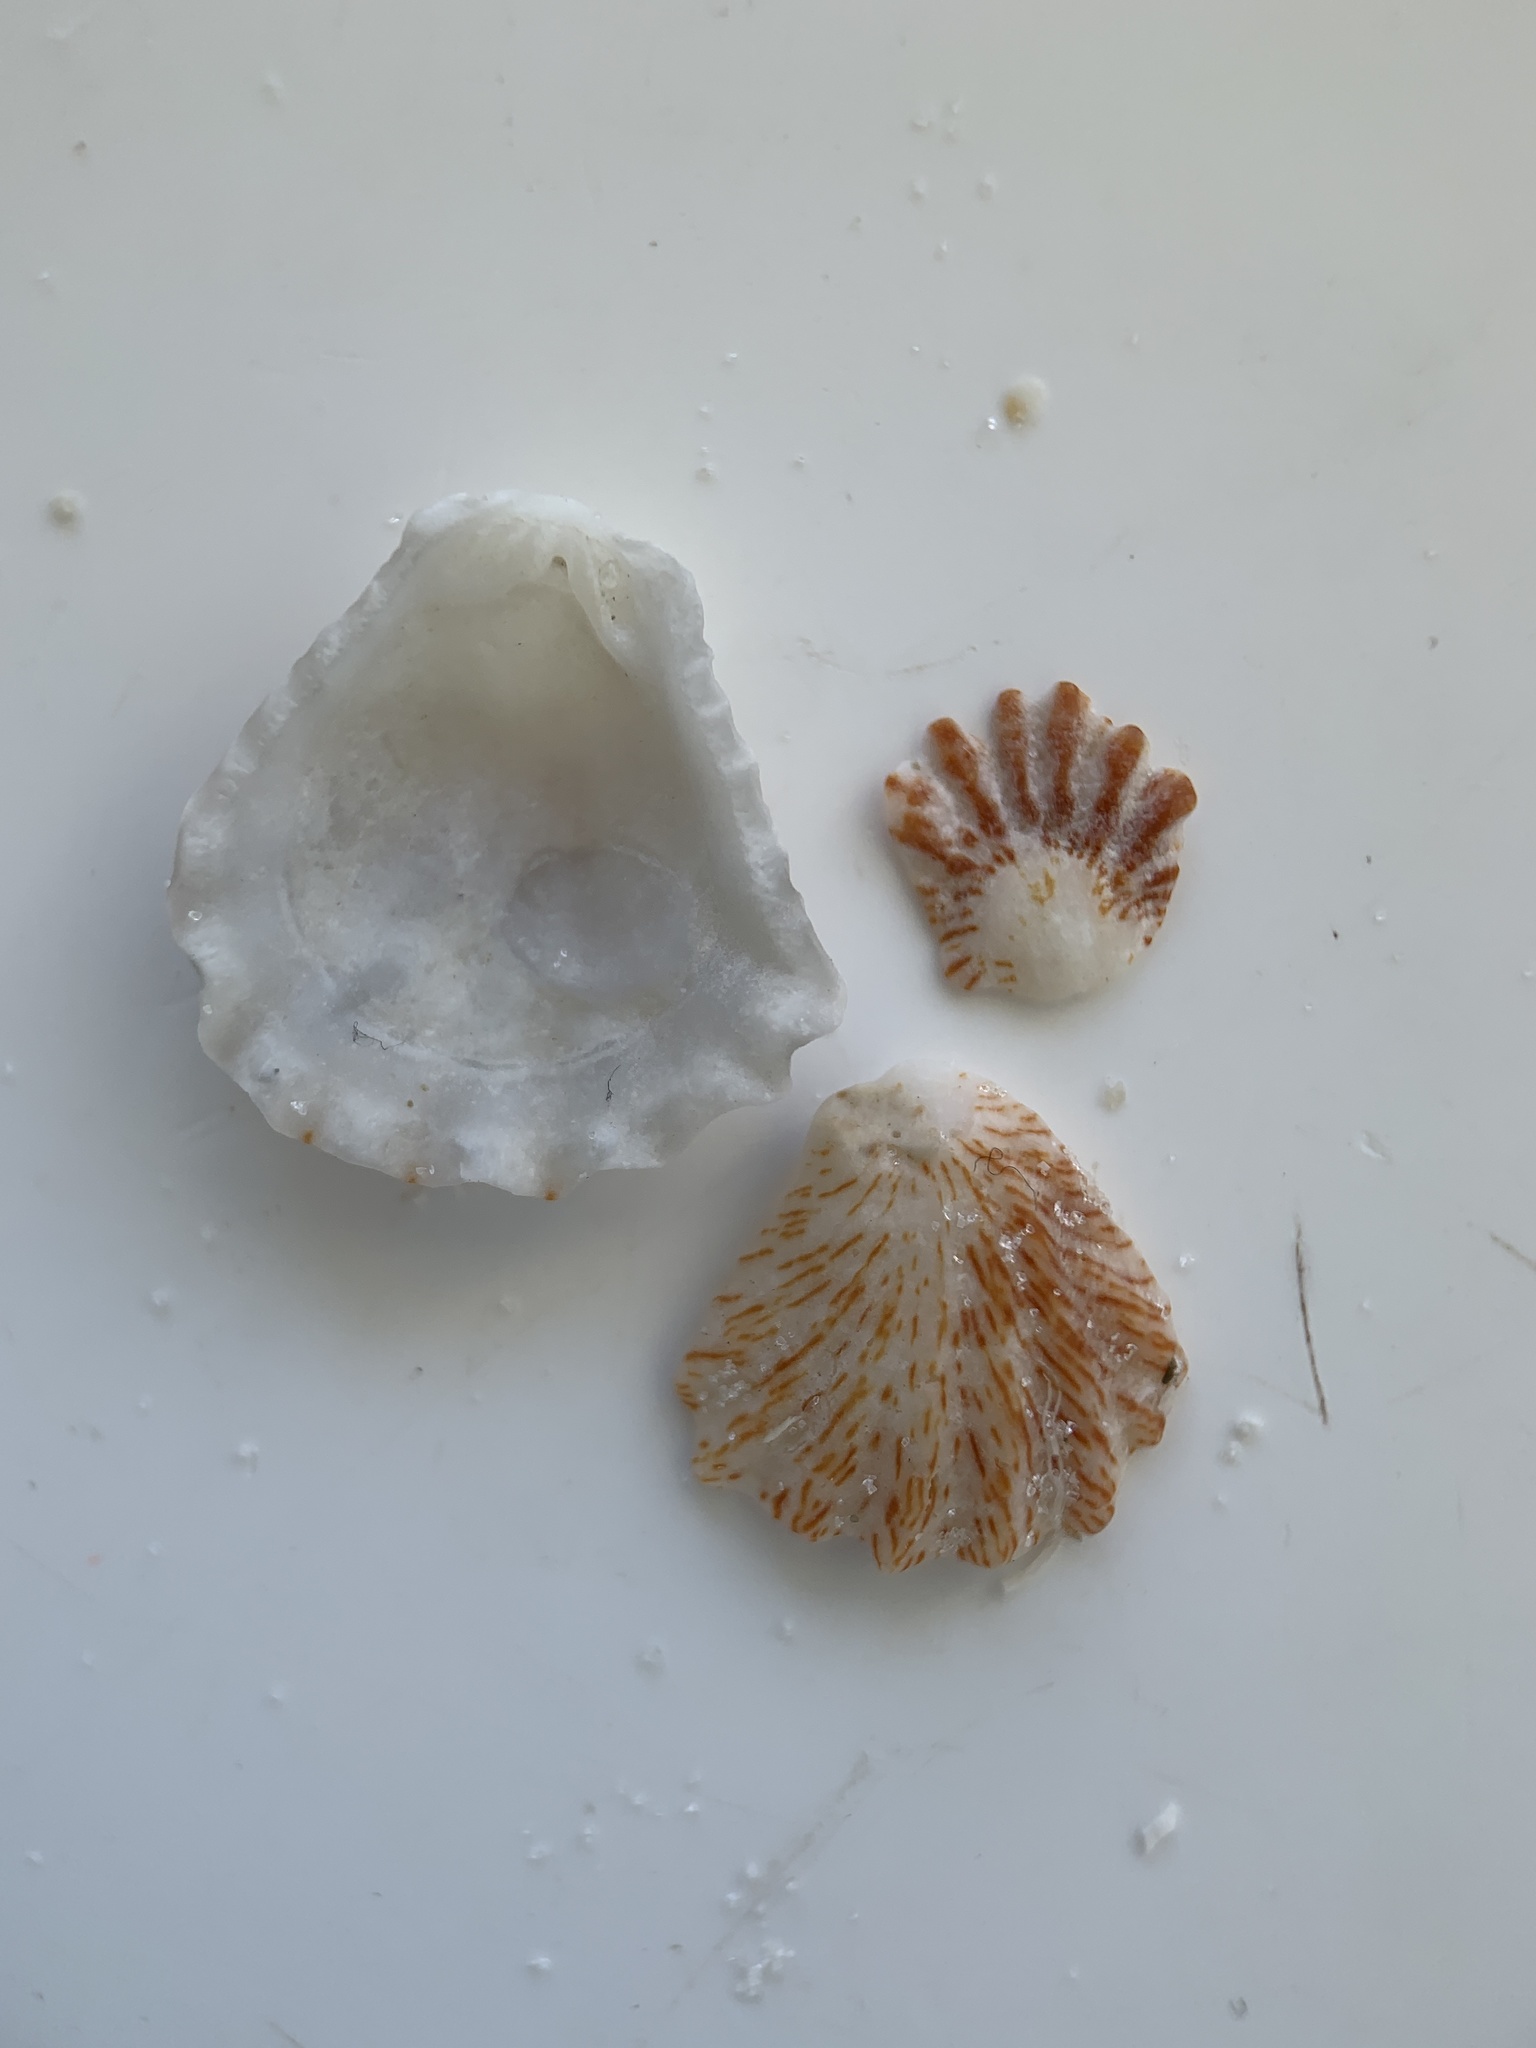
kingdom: Animalia
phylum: Mollusca
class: Bivalvia
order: Pectinida
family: Plicatulidae
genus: Plicatula
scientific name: Plicatula gibbosa
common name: Atlantic kitten's paw
